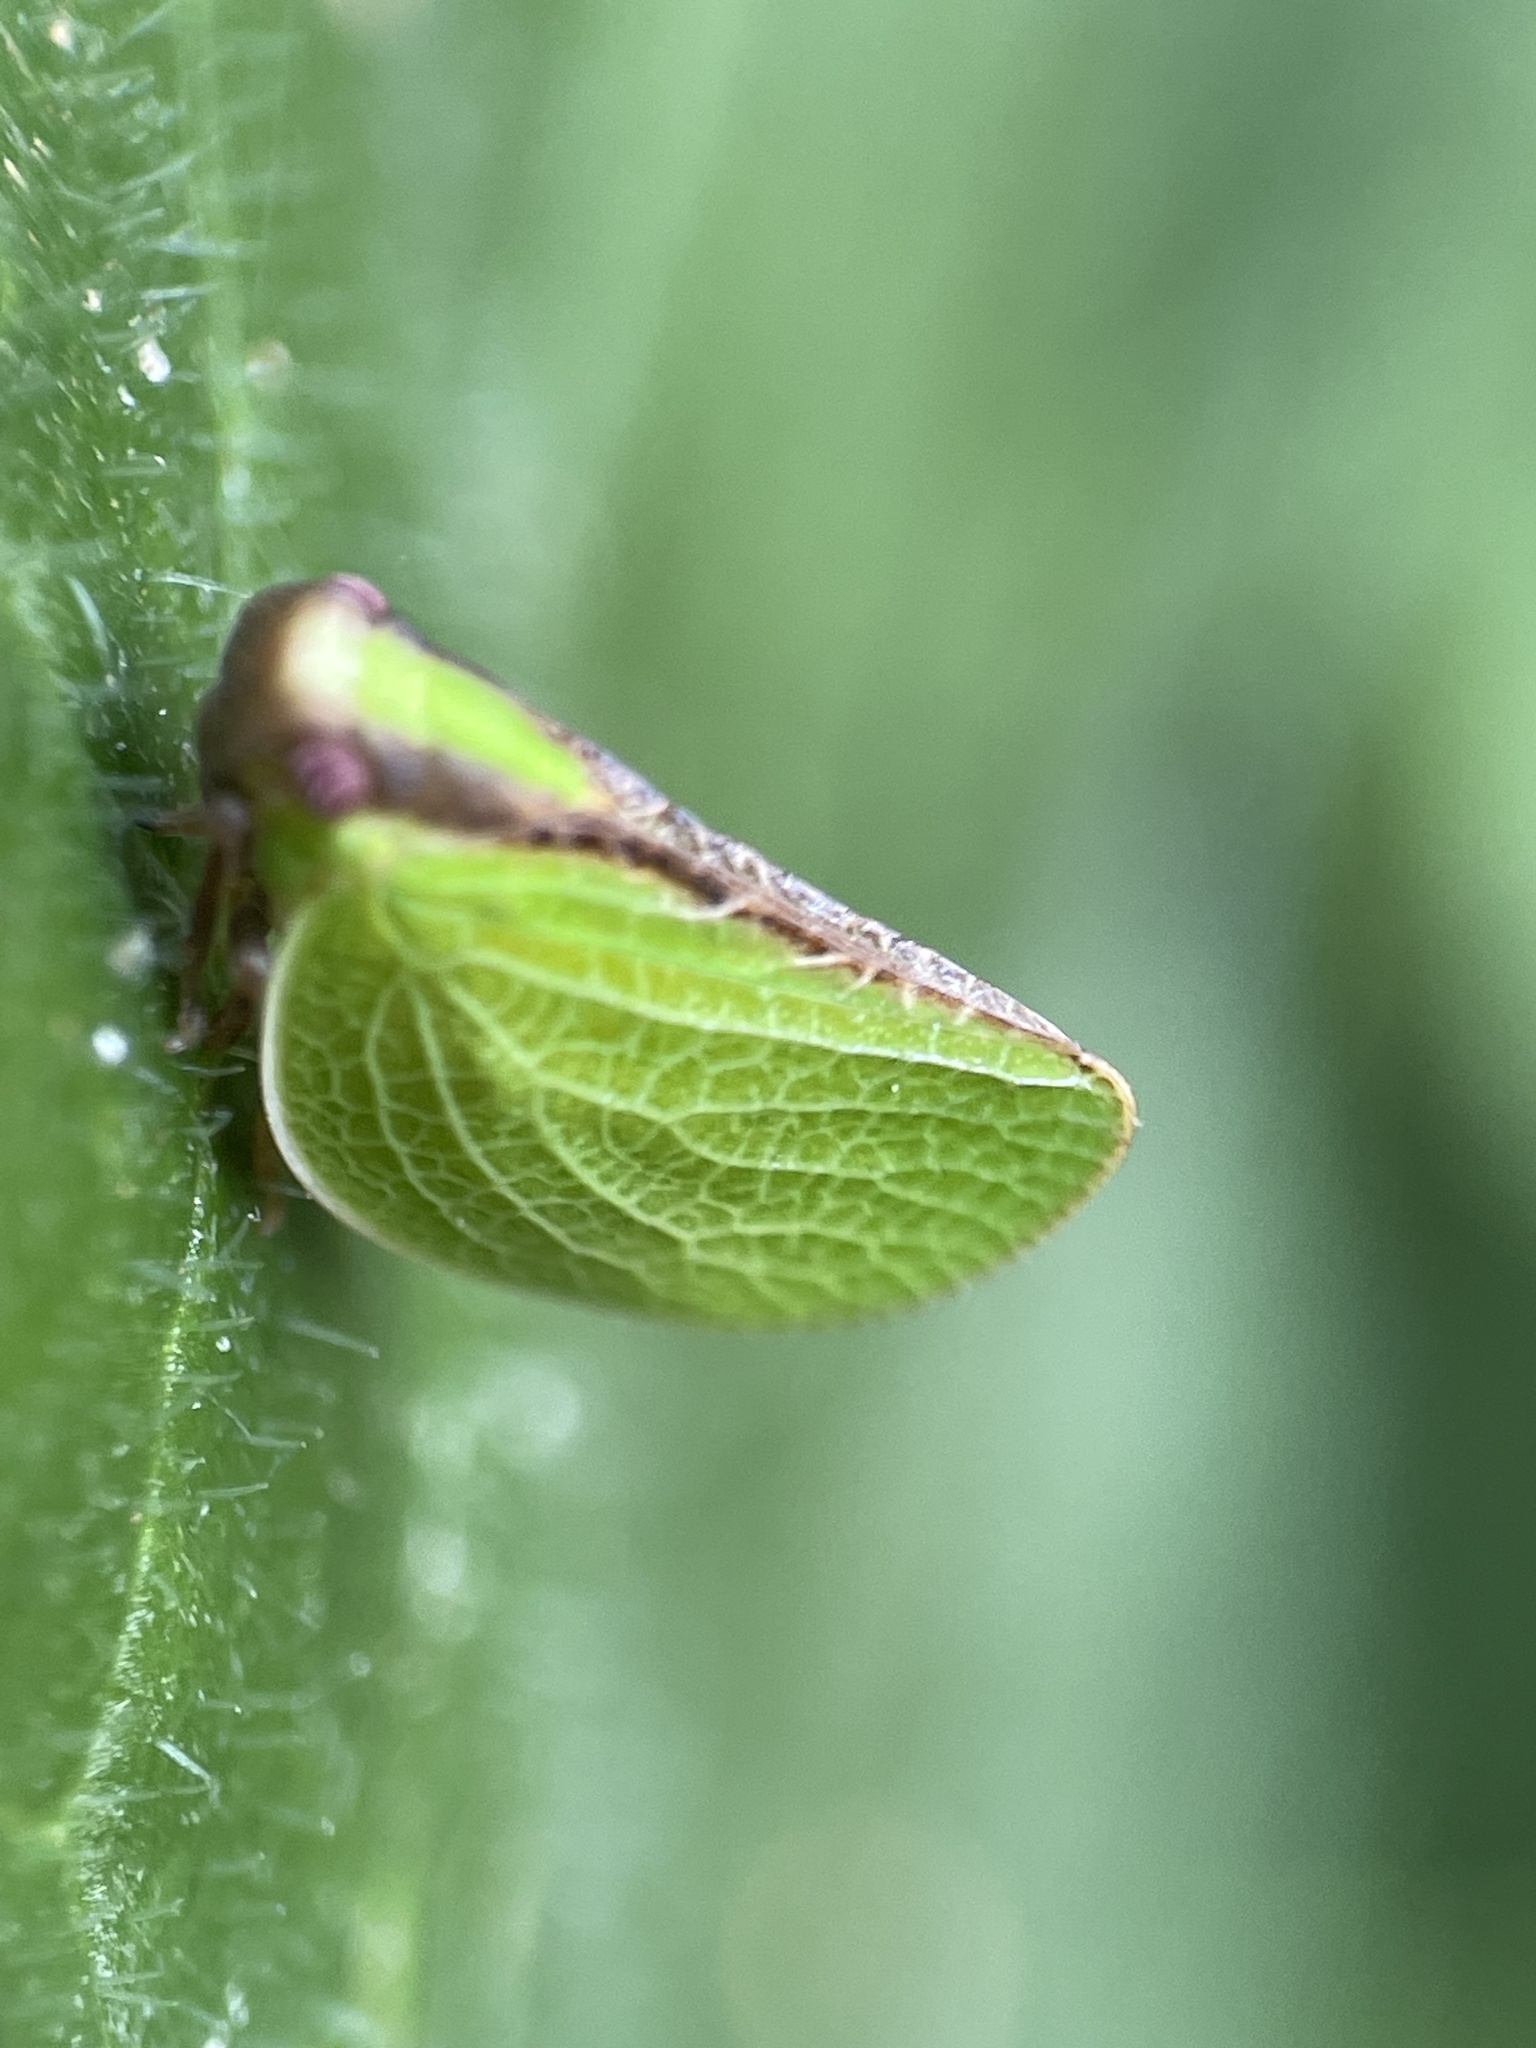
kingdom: Animalia
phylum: Arthropoda
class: Insecta
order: Hemiptera
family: Acanaloniidae
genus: Acanalonia
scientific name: Acanalonia bivittata
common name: Two-striped planthopper
